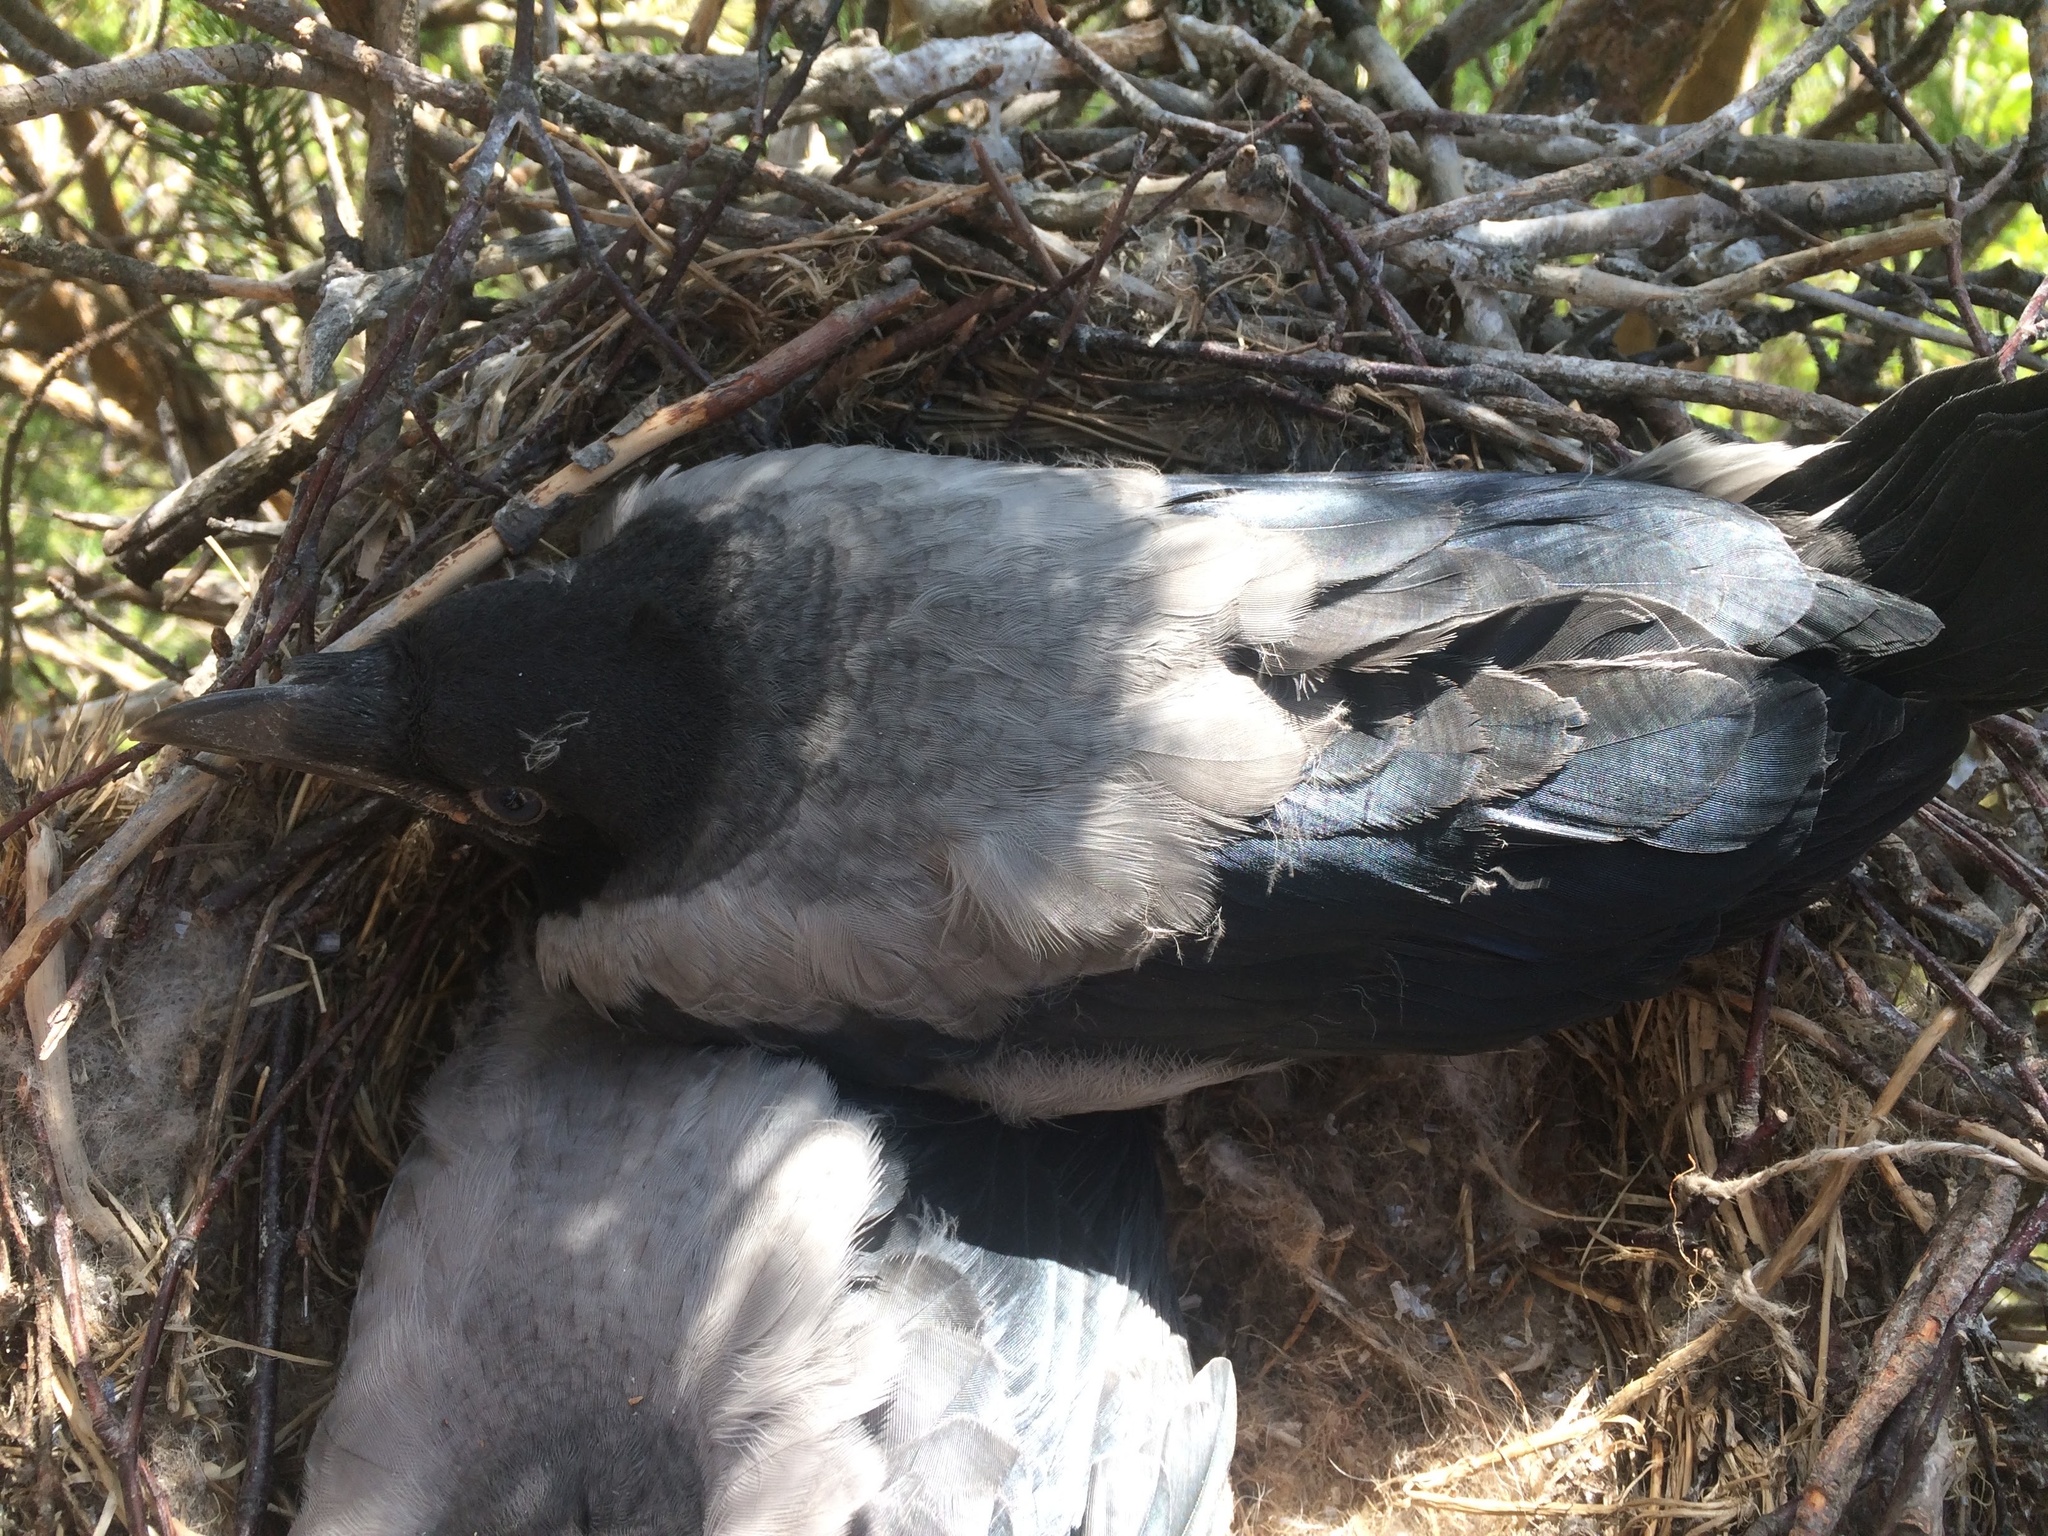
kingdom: Animalia
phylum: Chordata
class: Aves
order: Passeriformes
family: Corvidae
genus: Corvus
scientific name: Corvus cornix
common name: Hooded crow
